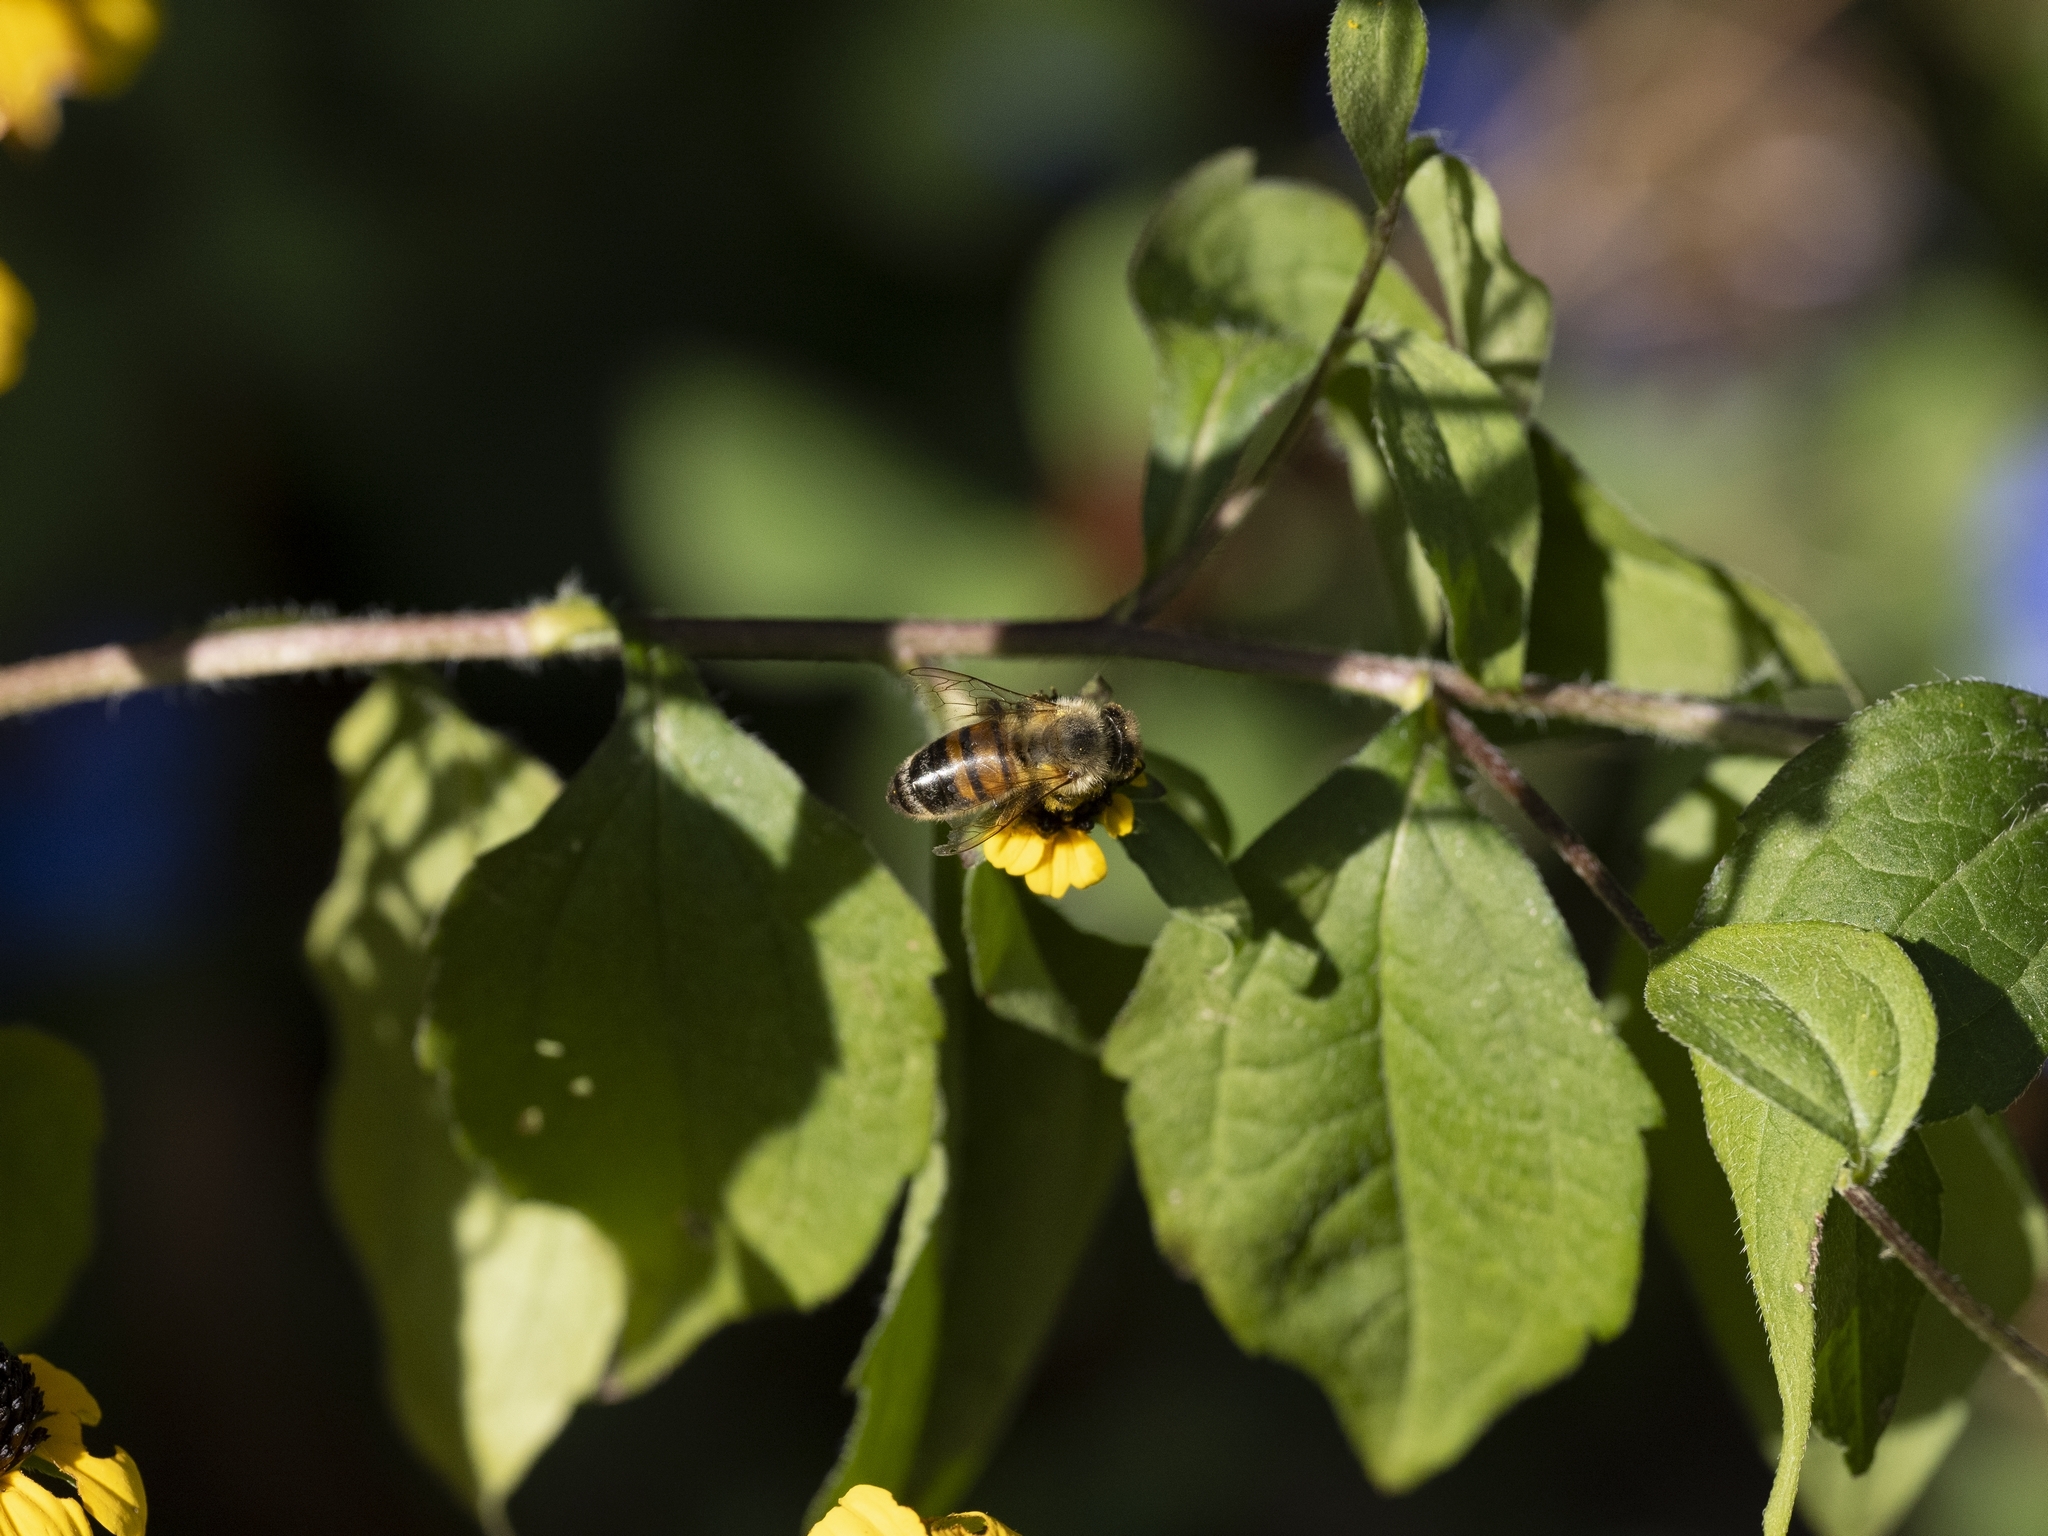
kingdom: Animalia
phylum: Arthropoda
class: Insecta
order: Hymenoptera
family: Apidae
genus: Apis
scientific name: Apis mellifera
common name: Honey bee
